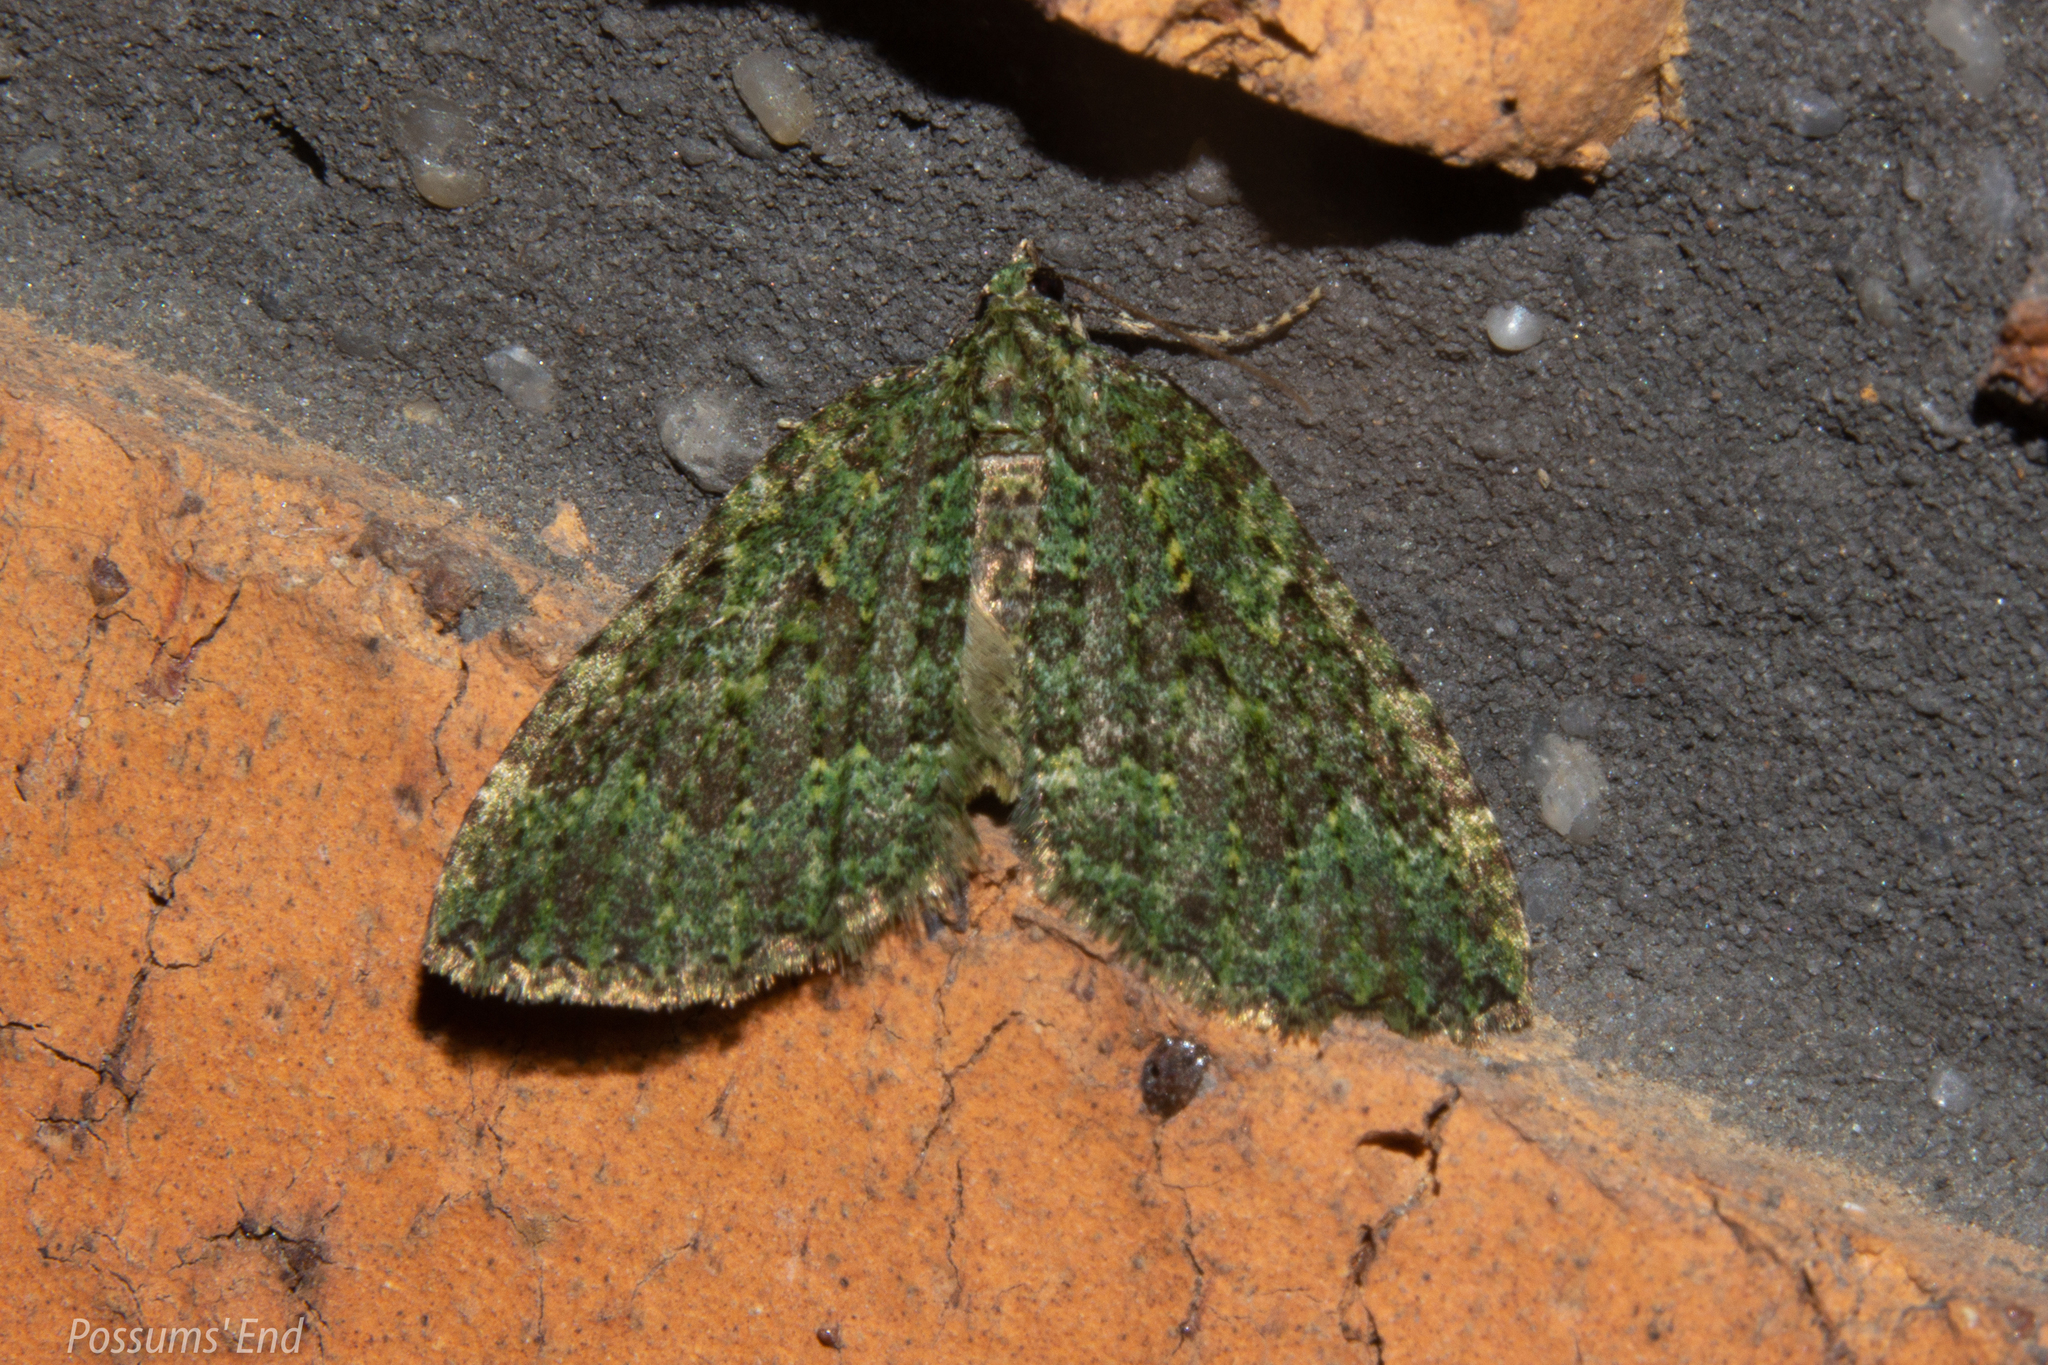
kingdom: Animalia
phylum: Arthropoda
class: Insecta
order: Lepidoptera
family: Geometridae
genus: Austrocidaria
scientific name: Austrocidaria callichlora
